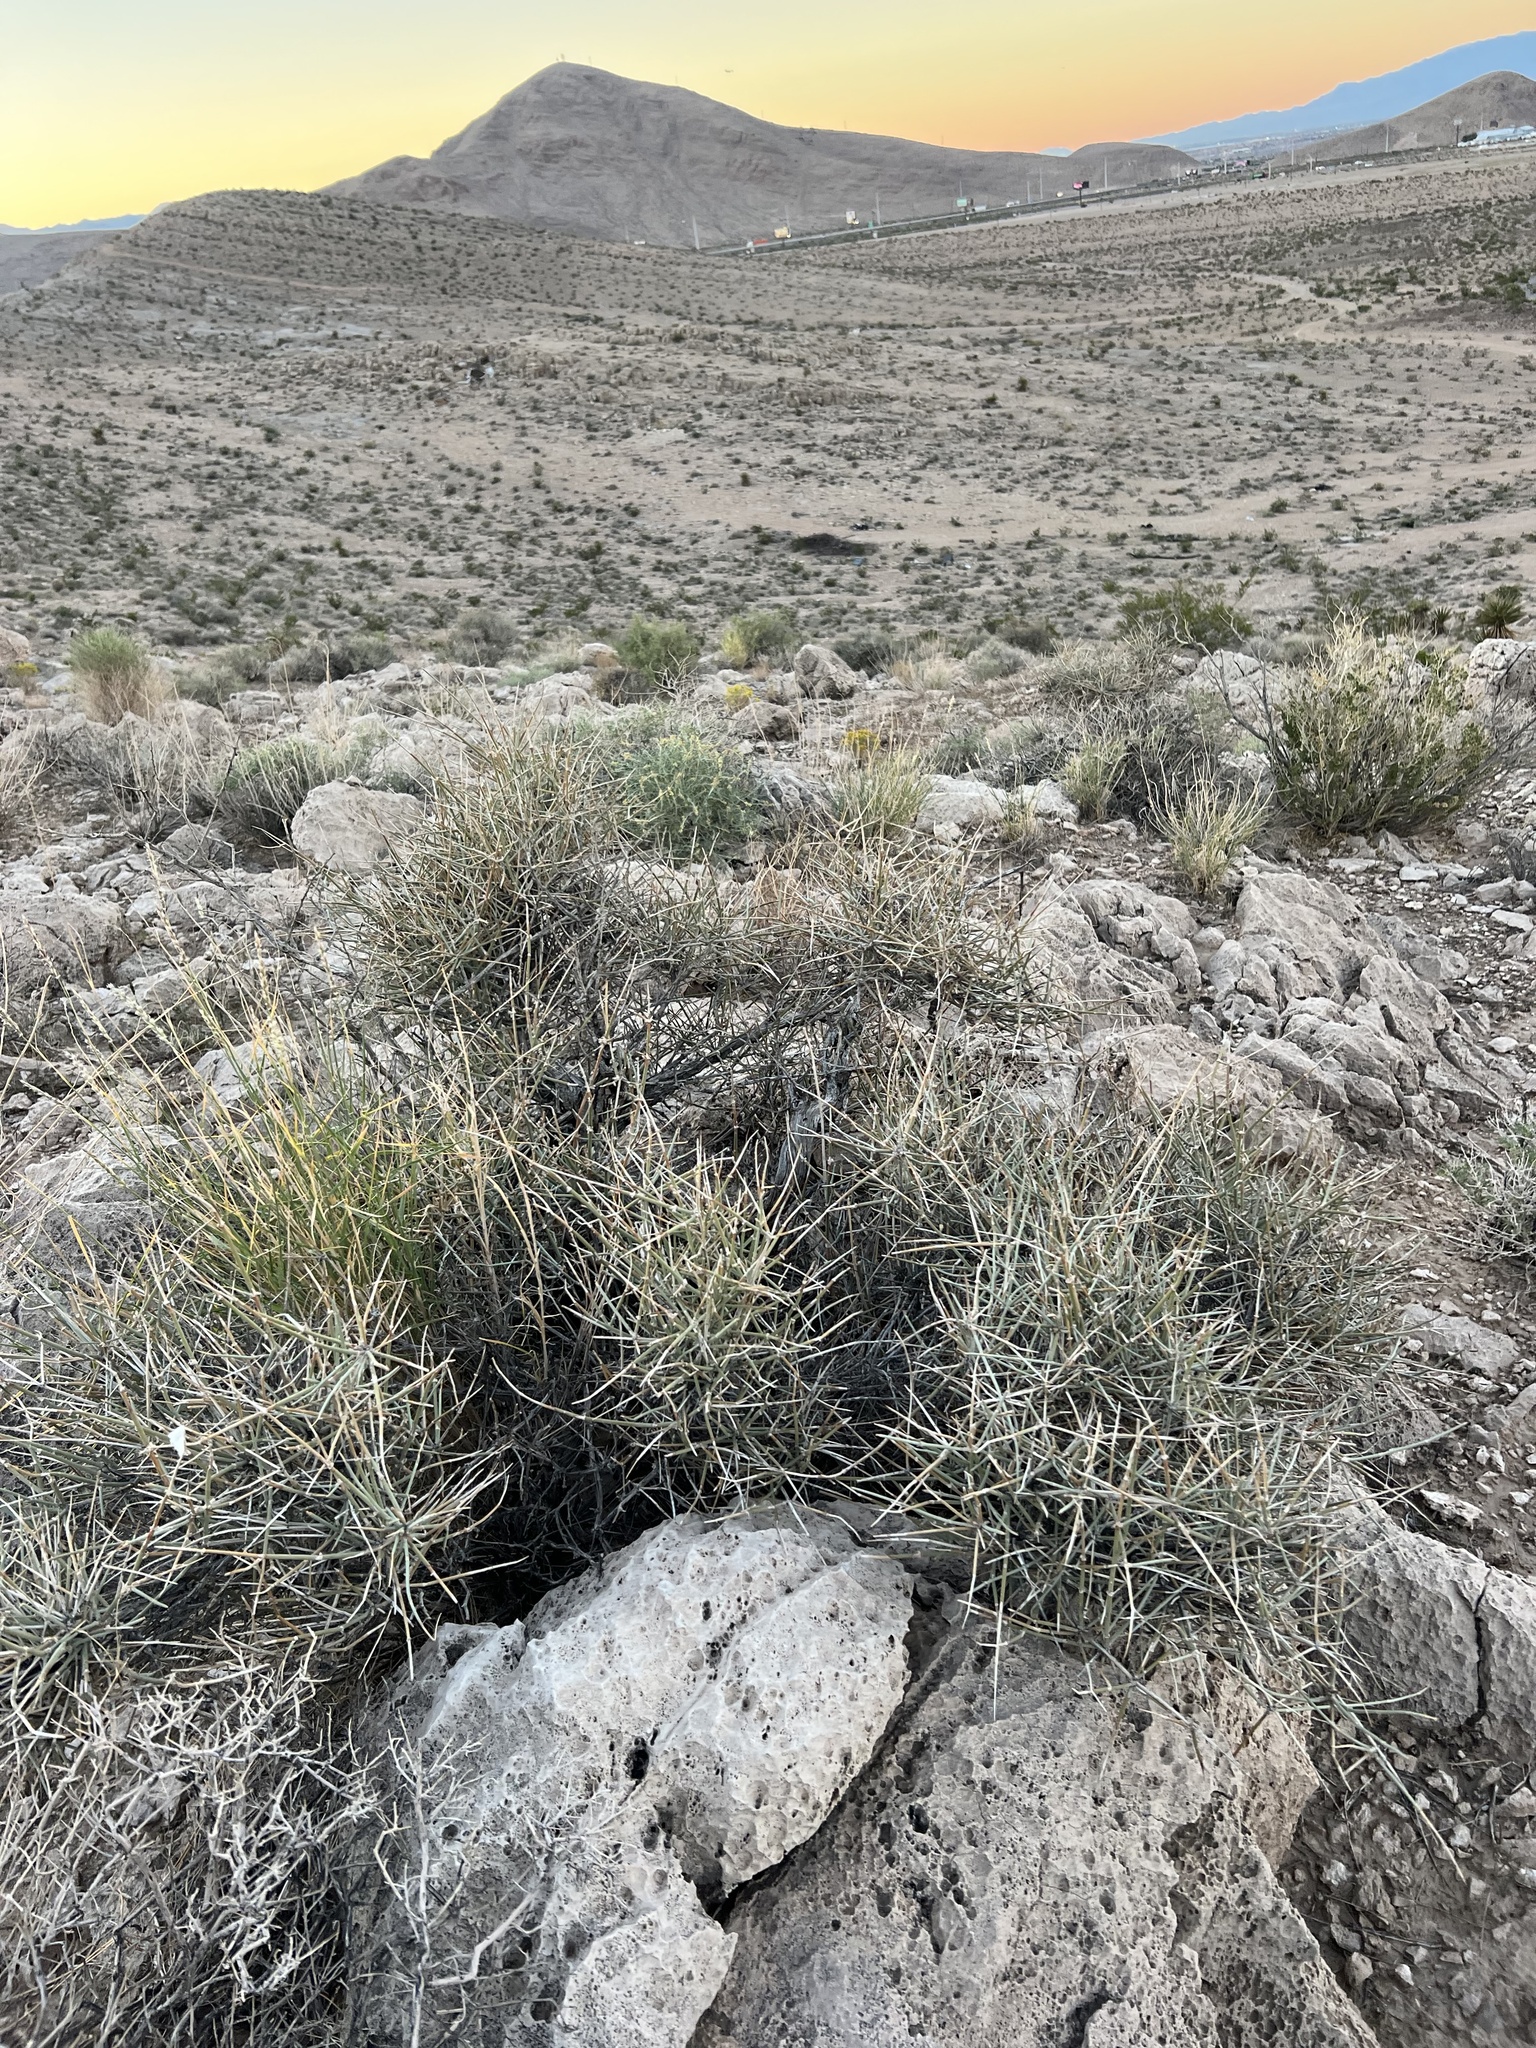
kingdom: Plantae
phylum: Tracheophyta
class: Gnetopsida
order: Ephedrales
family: Ephedraceae
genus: Ephedra
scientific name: Ephedra nevadensis
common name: Gray ephedra
